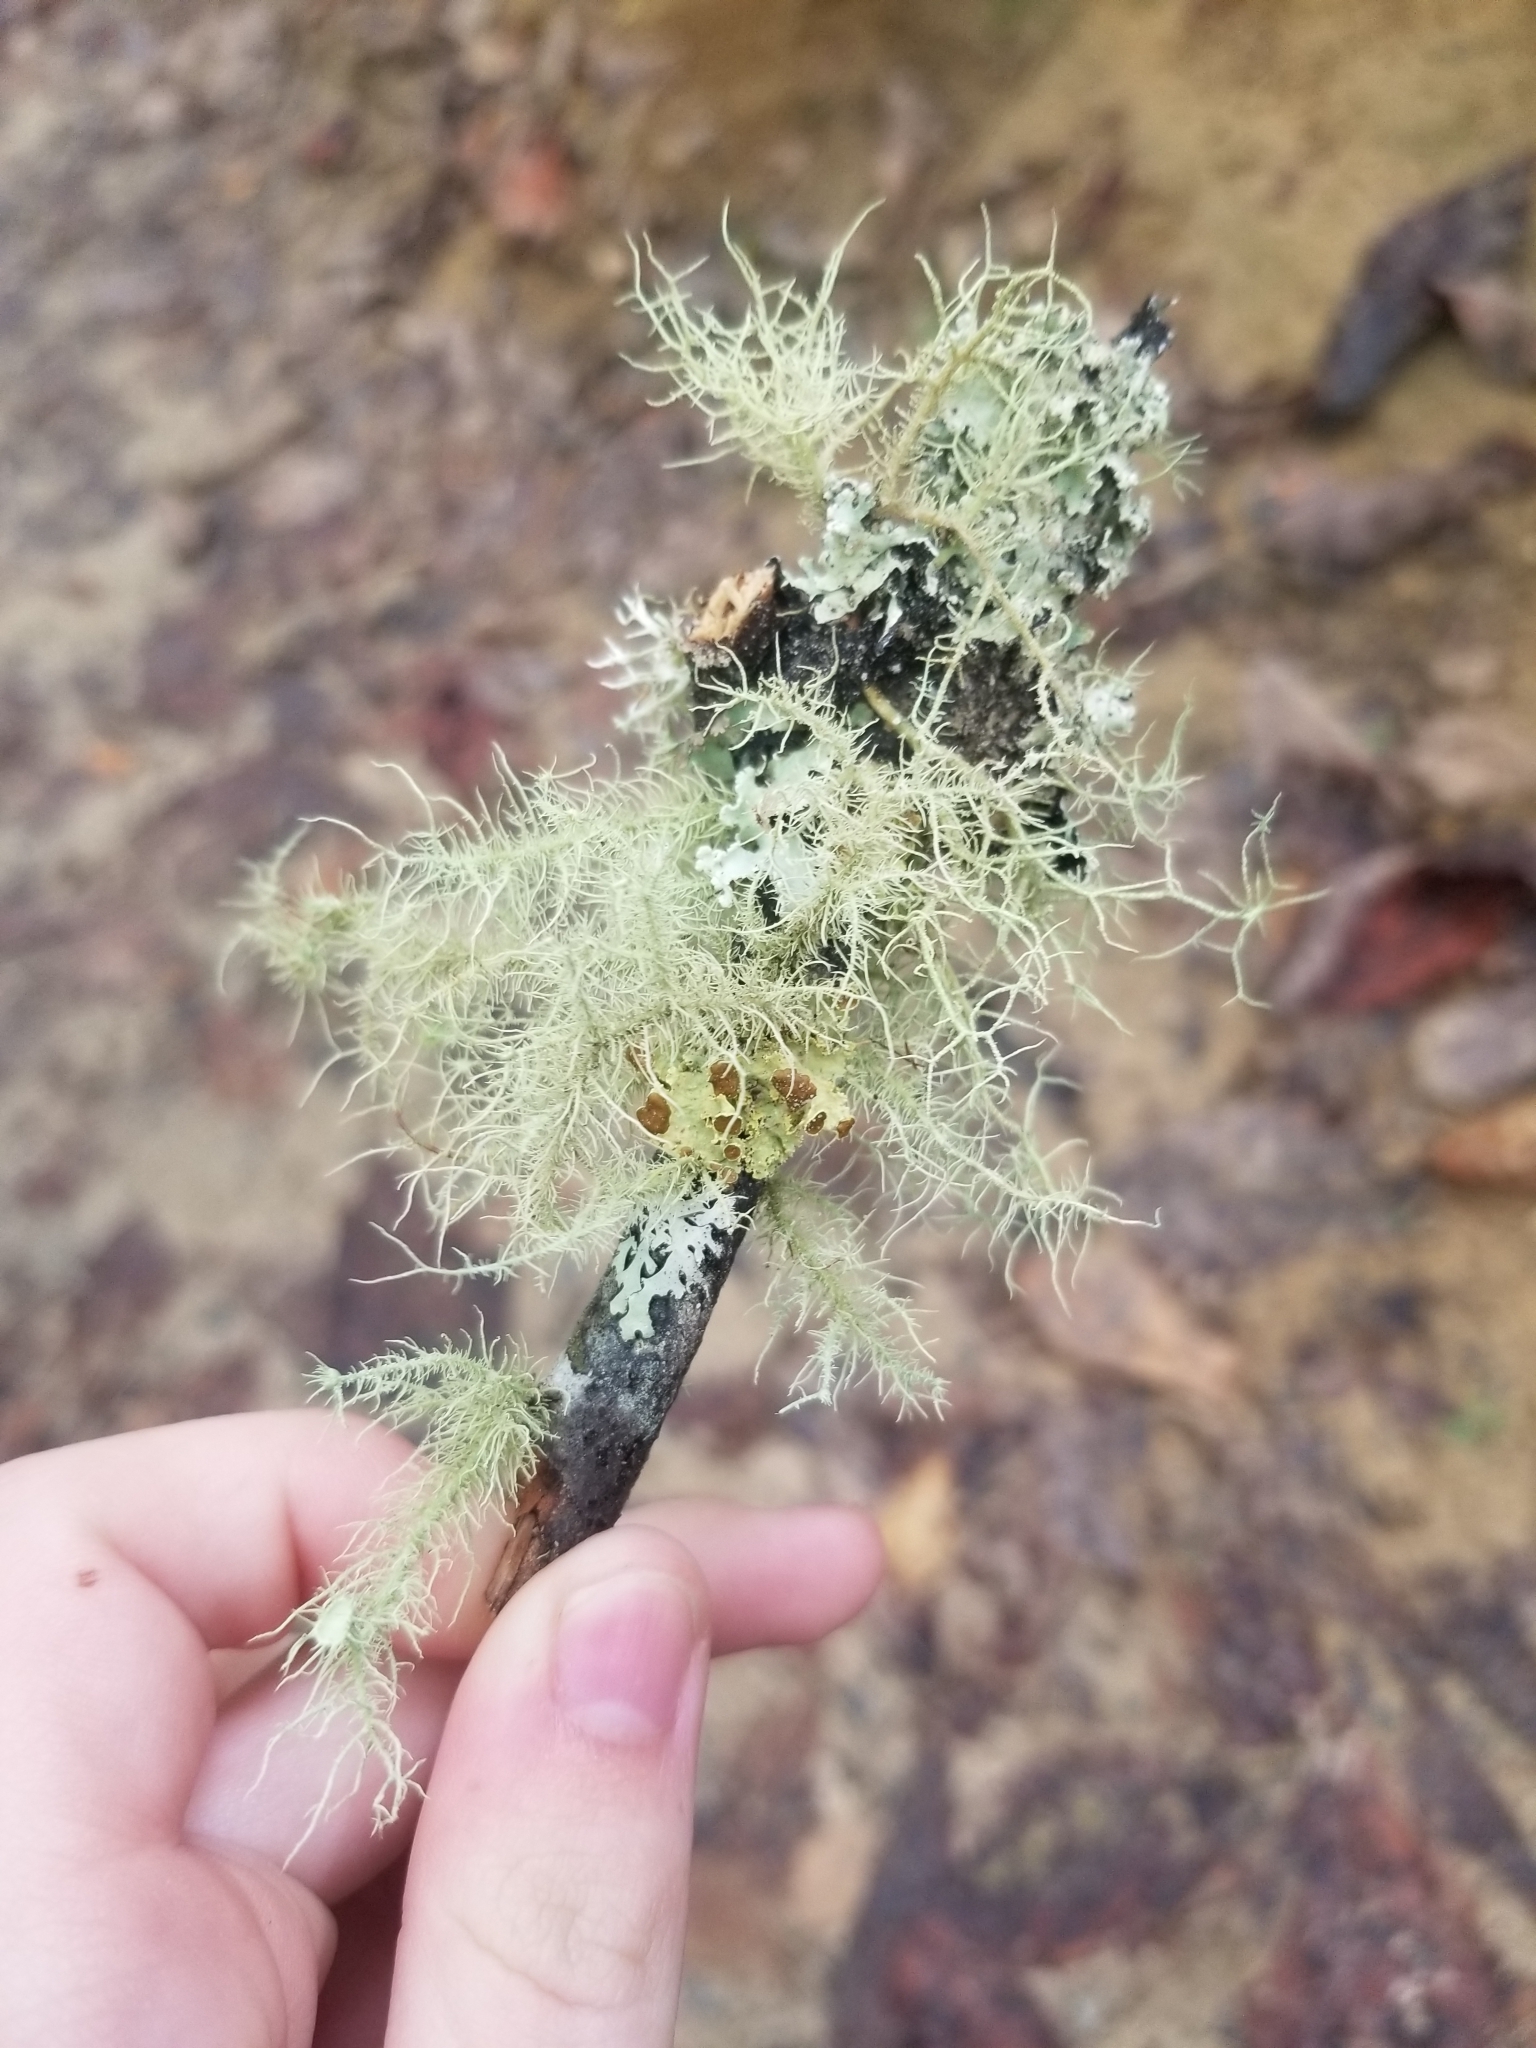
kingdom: Fungi
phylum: Ascomycota
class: Lecanoromycetes
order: Lecanorales
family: Parmeliaceae
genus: Usnea
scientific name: Usnea strigosa
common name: Bushy beard lichen
